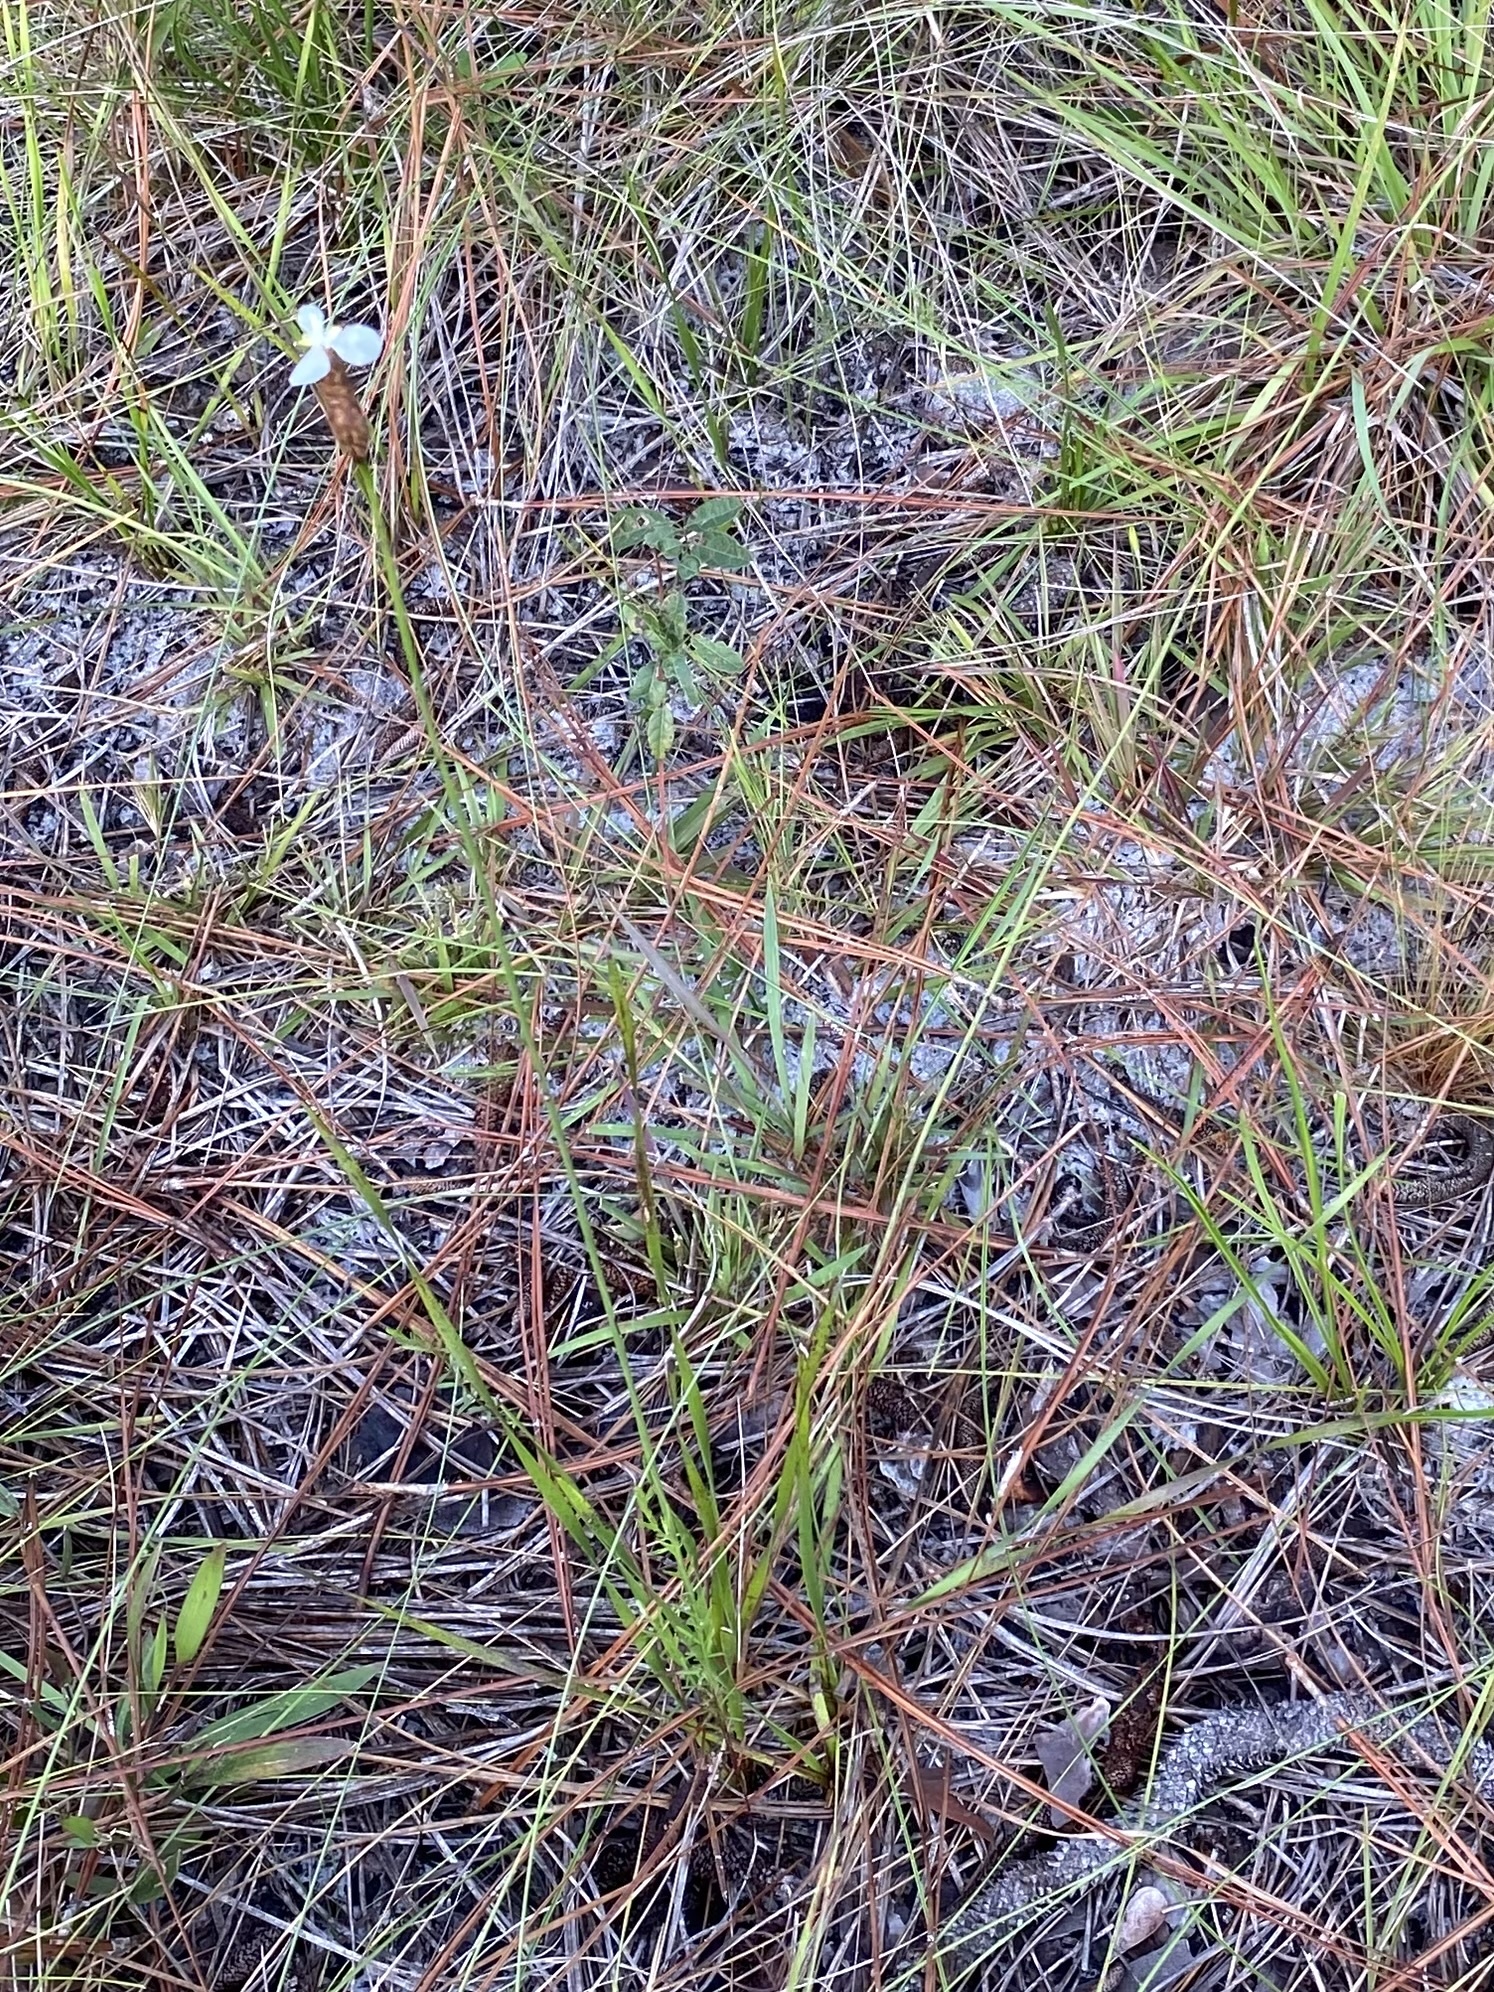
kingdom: Plantae
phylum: Tracheophyta
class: Liliopsida
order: Poales
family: Xyridaceae
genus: Xyris
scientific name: Xyris caroliniana
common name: Carolina yellow-eyed-grass
